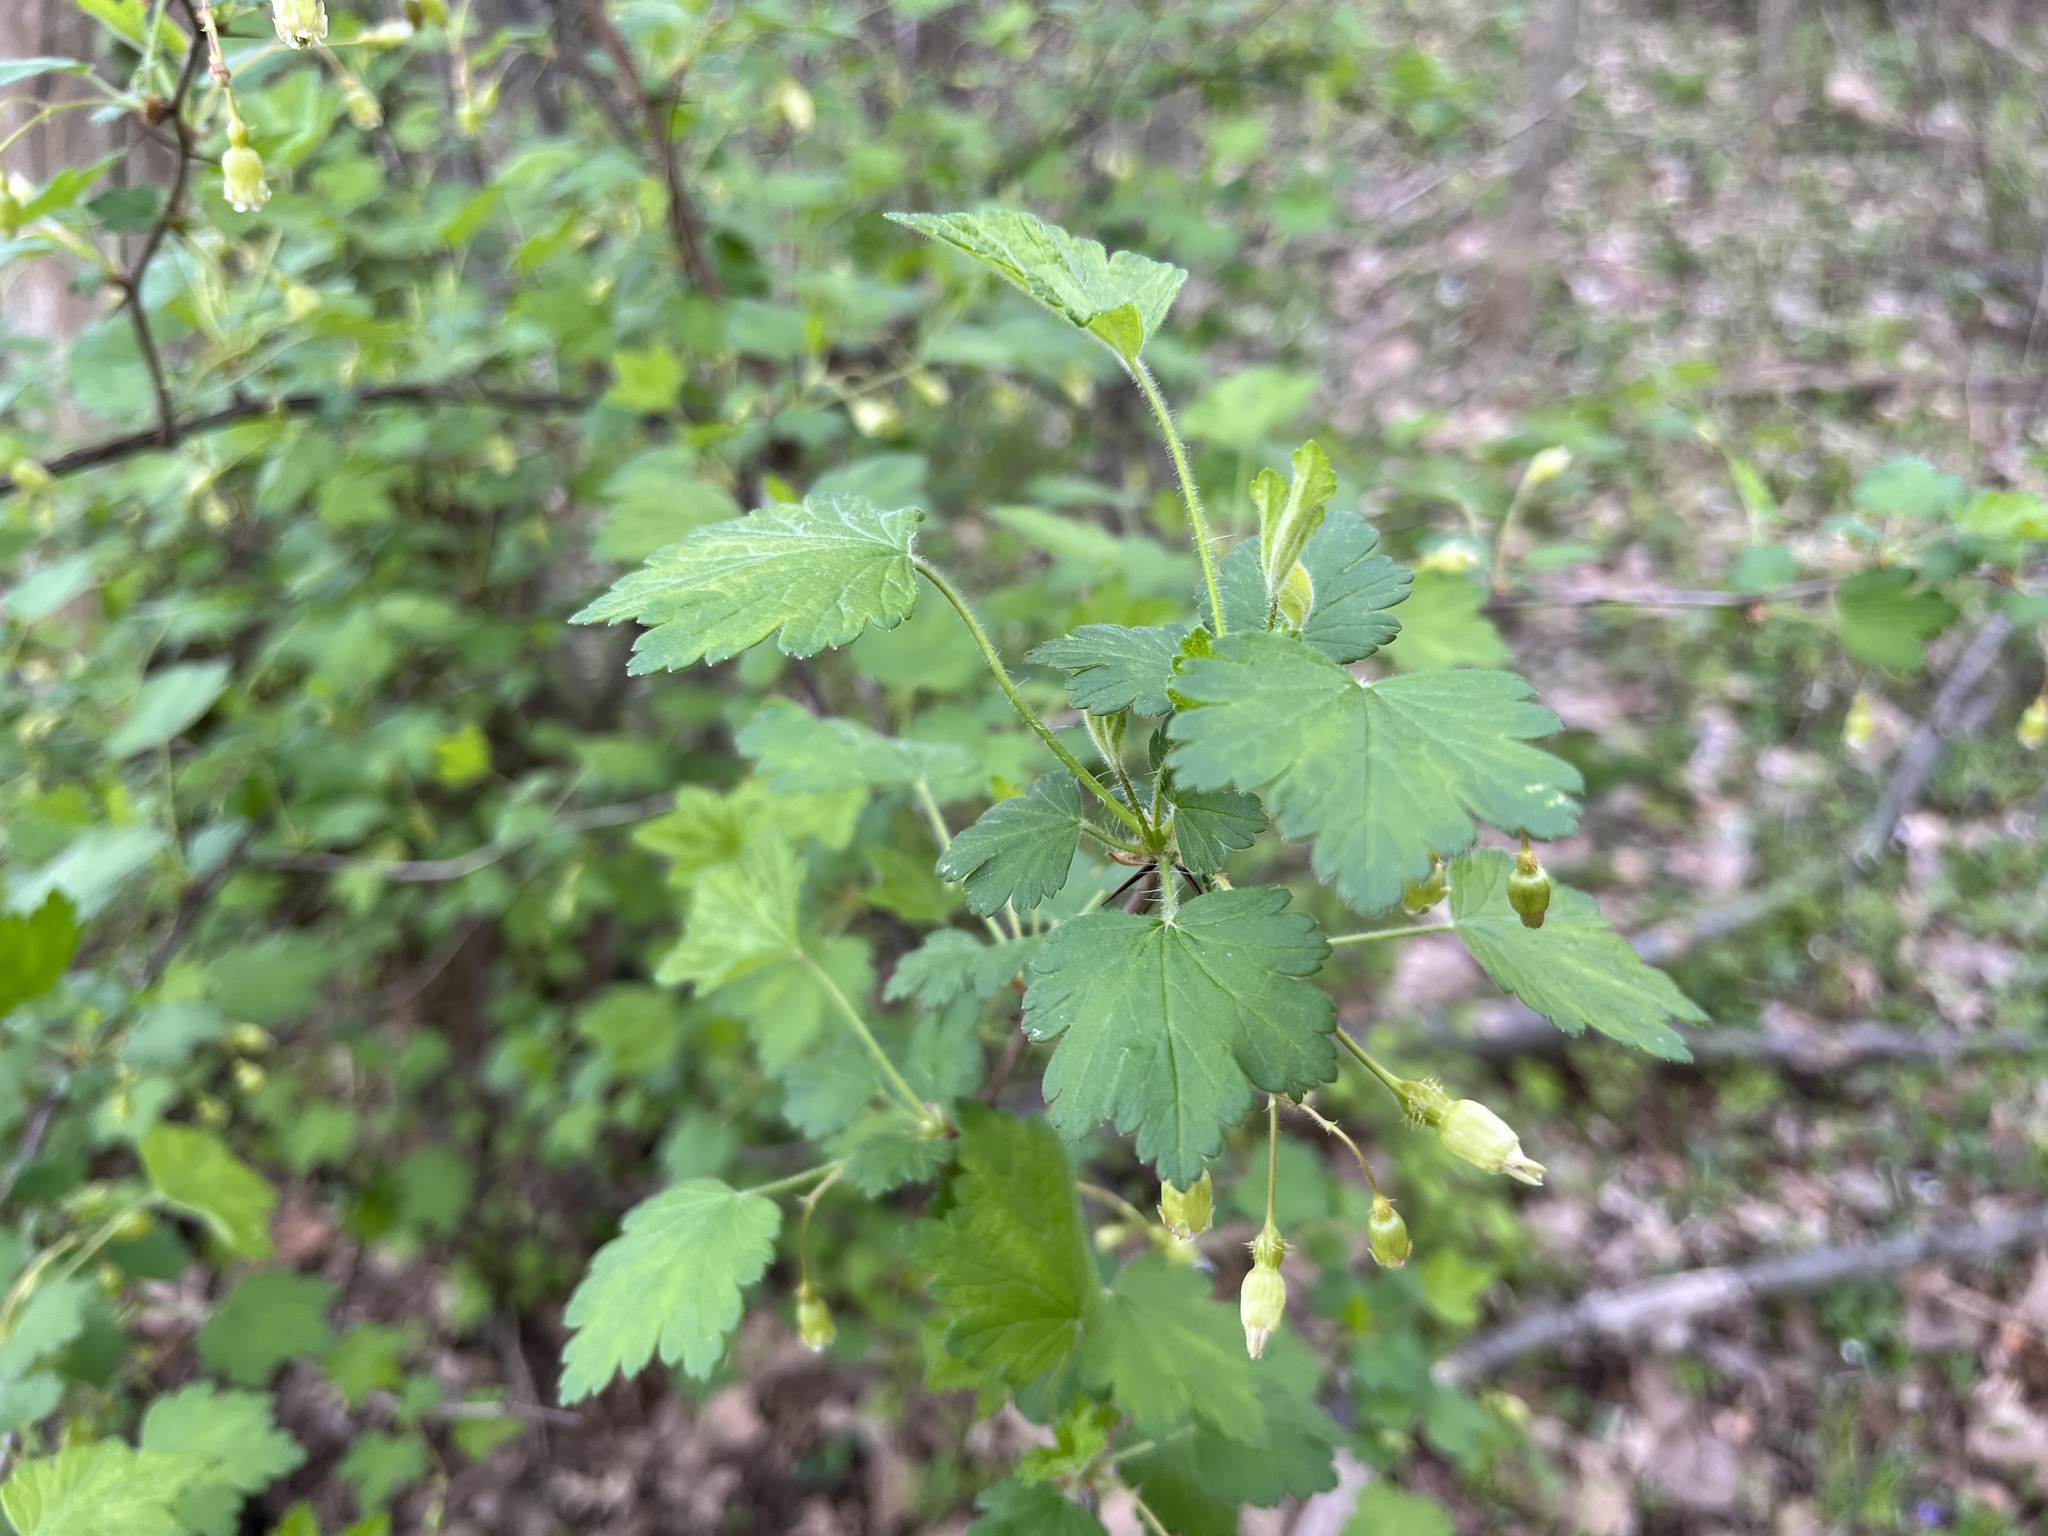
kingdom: Plantae
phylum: Tracheophyta
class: Magnoliopsida
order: Saxifragales
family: Grossulariaceae
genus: Ribes
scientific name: Ribes cynosbati
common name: American gooseberry
